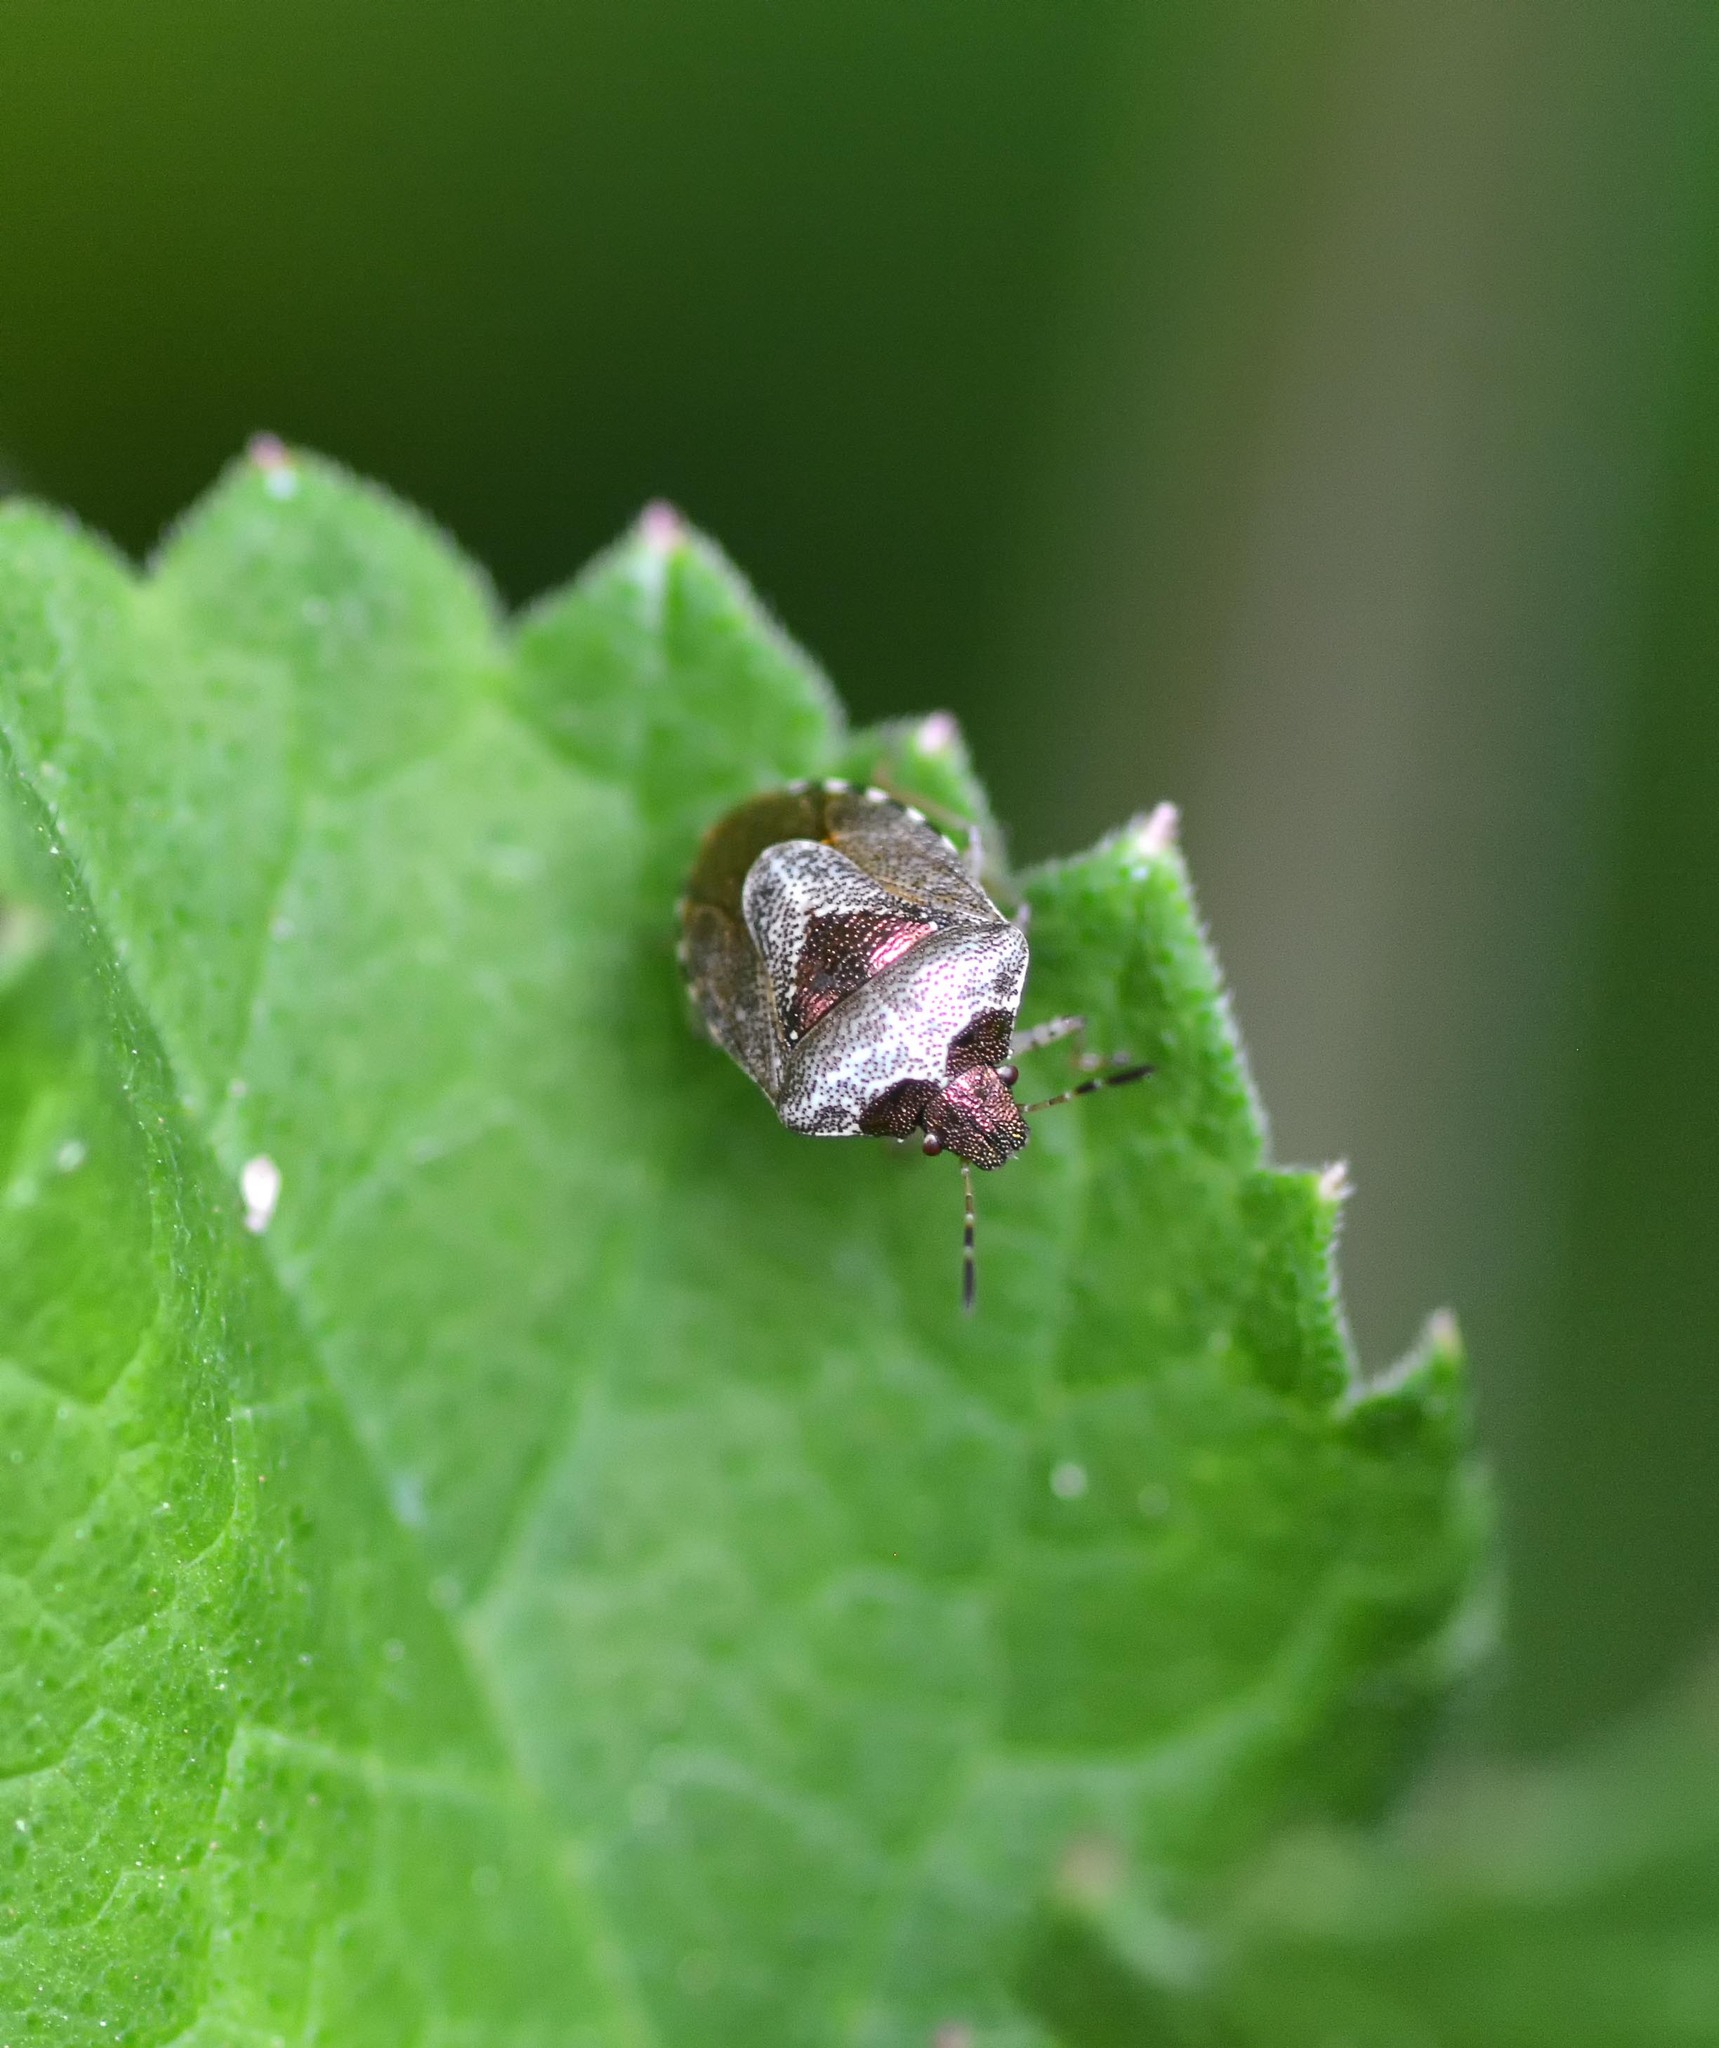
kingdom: Animalia
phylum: Arthropoda
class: Insecta
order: Hemiptera
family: Pentatomidae
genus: Eysarcoris
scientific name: Eysarcoris venustissimus
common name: Woundwort shieldbug
